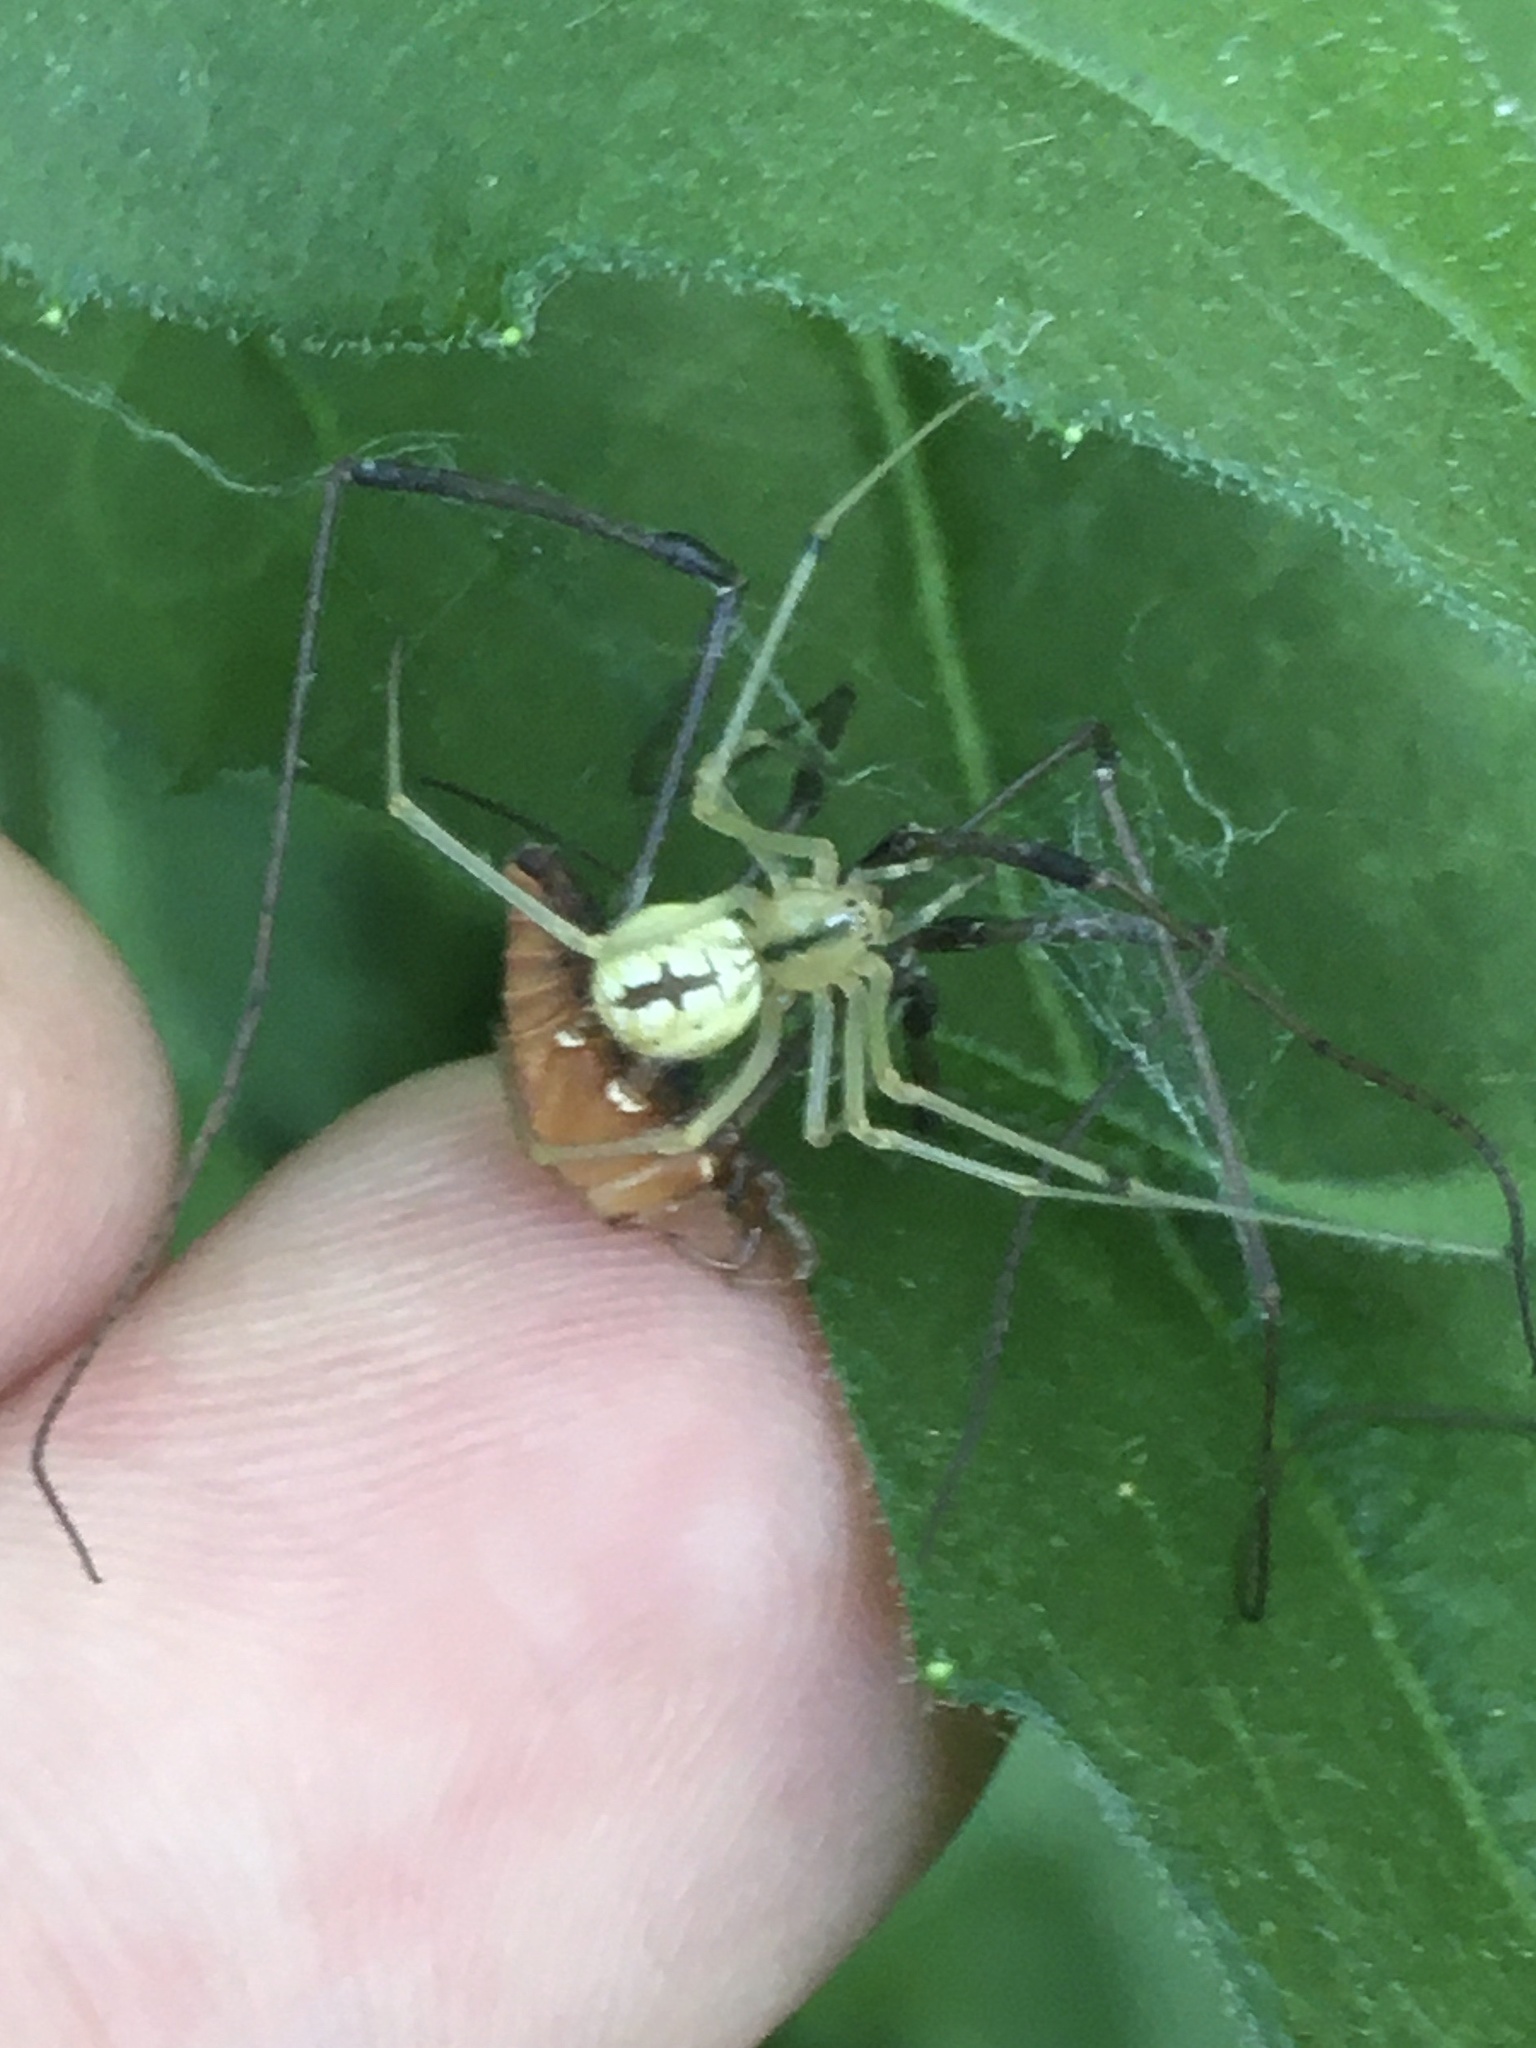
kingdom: Animalia
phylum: Arthropoda
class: Arachnida
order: Araneae
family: Theridiidae
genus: Enoplognatha
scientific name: Enoplognatha ovata
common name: Common candy-striped spider
